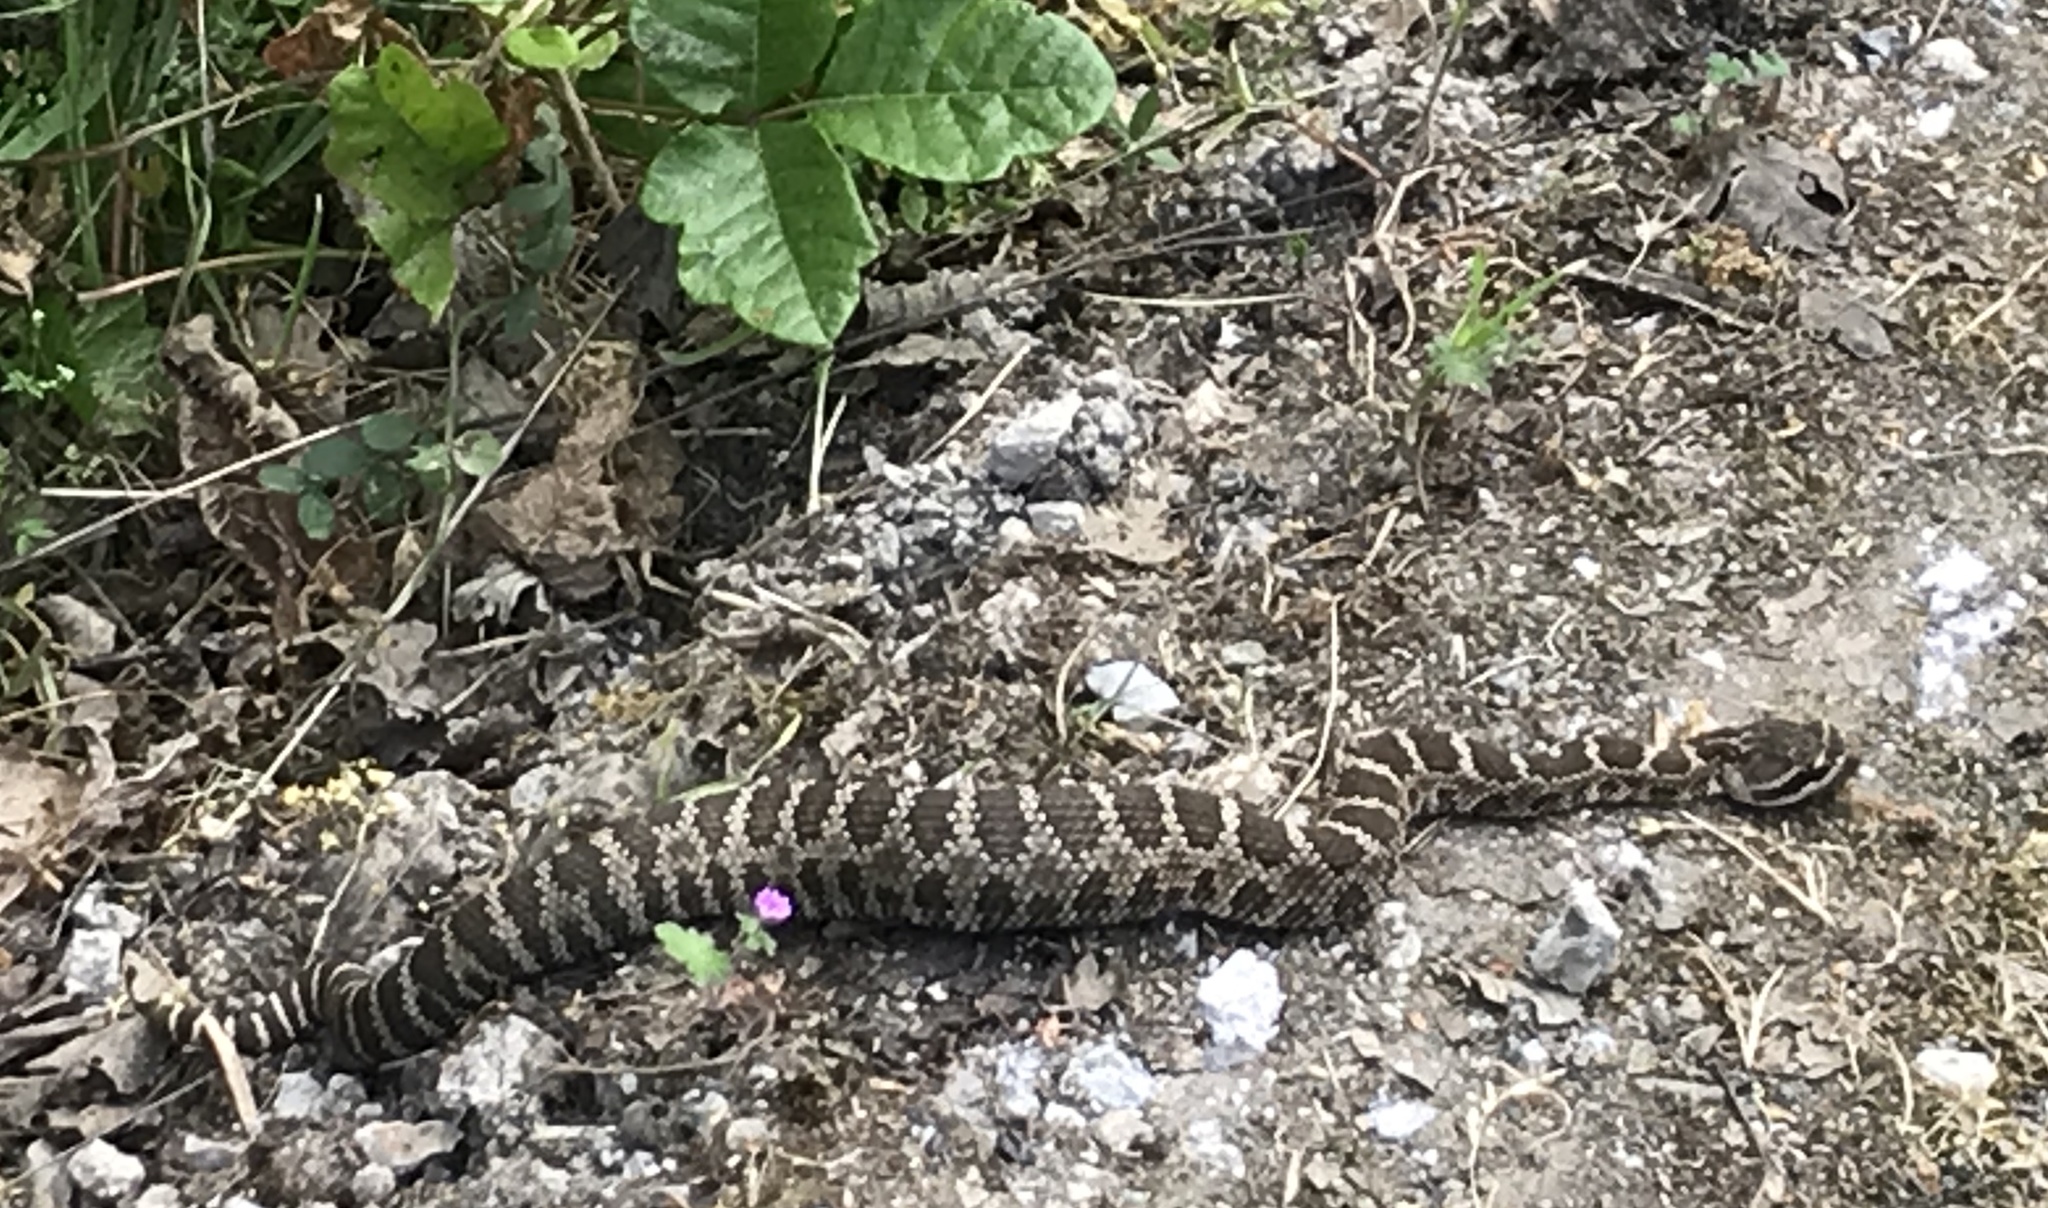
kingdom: Animalia
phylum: Chordata
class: Squamata
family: Viperidae
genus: Crotalus
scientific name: Crotalus oreganus
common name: Abyssus
